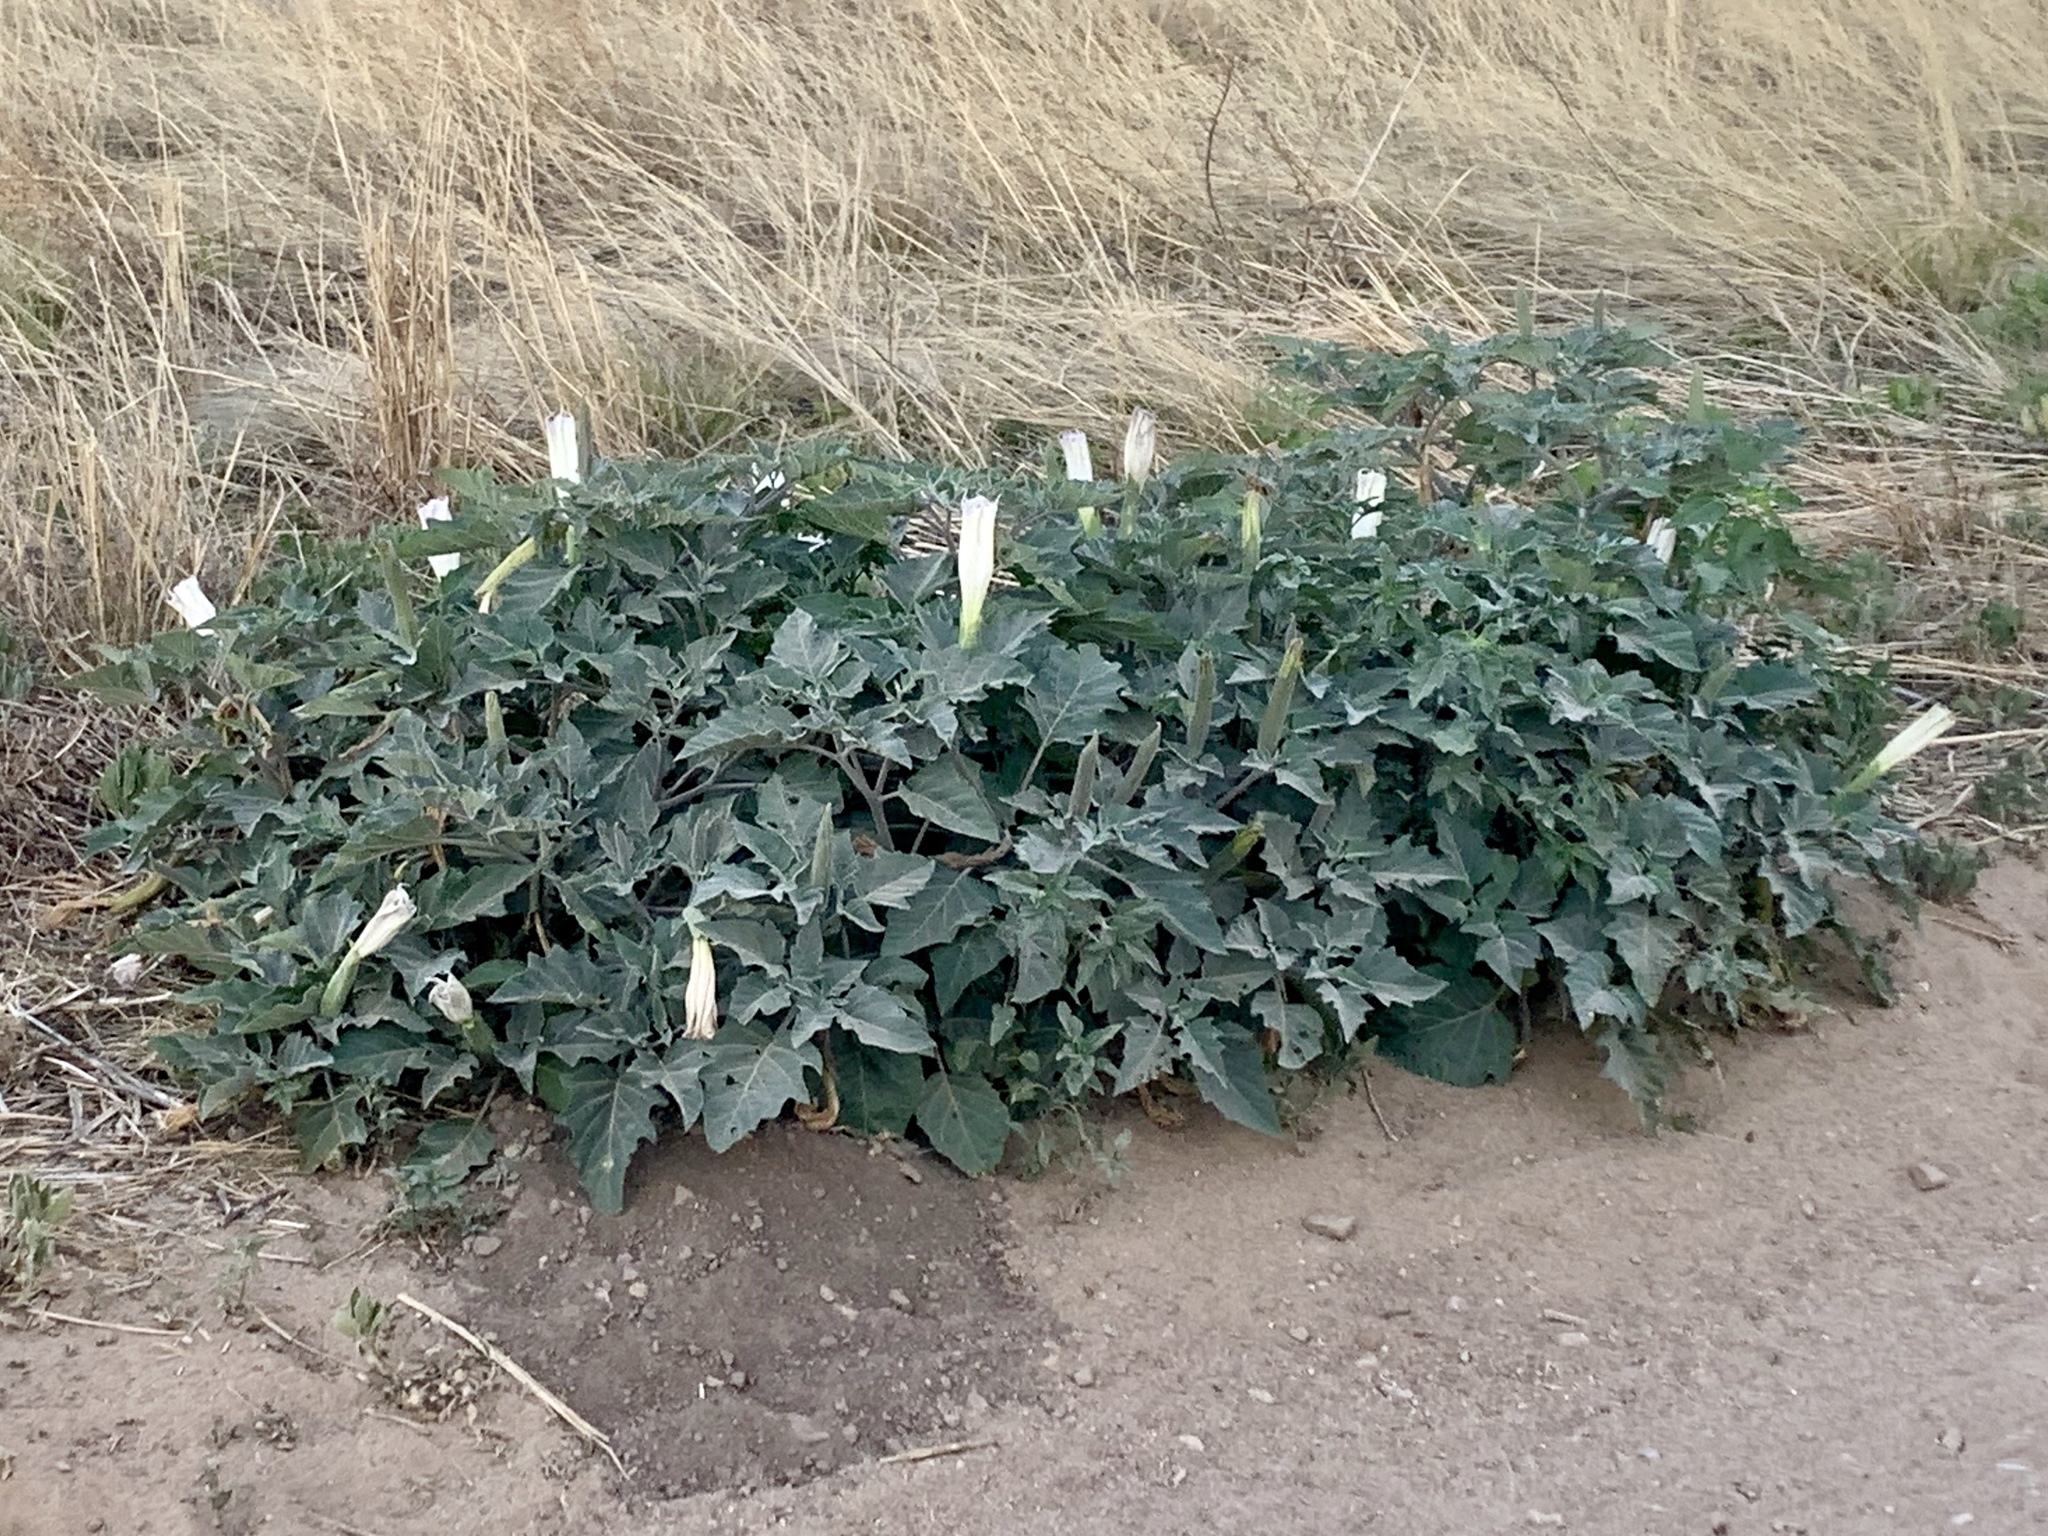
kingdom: Plantae
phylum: Tracheophyta
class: Magnoliopsida
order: Solanales
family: Solanaceae
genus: Datura
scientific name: Datura wrightii
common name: Sacred thorn-apple
